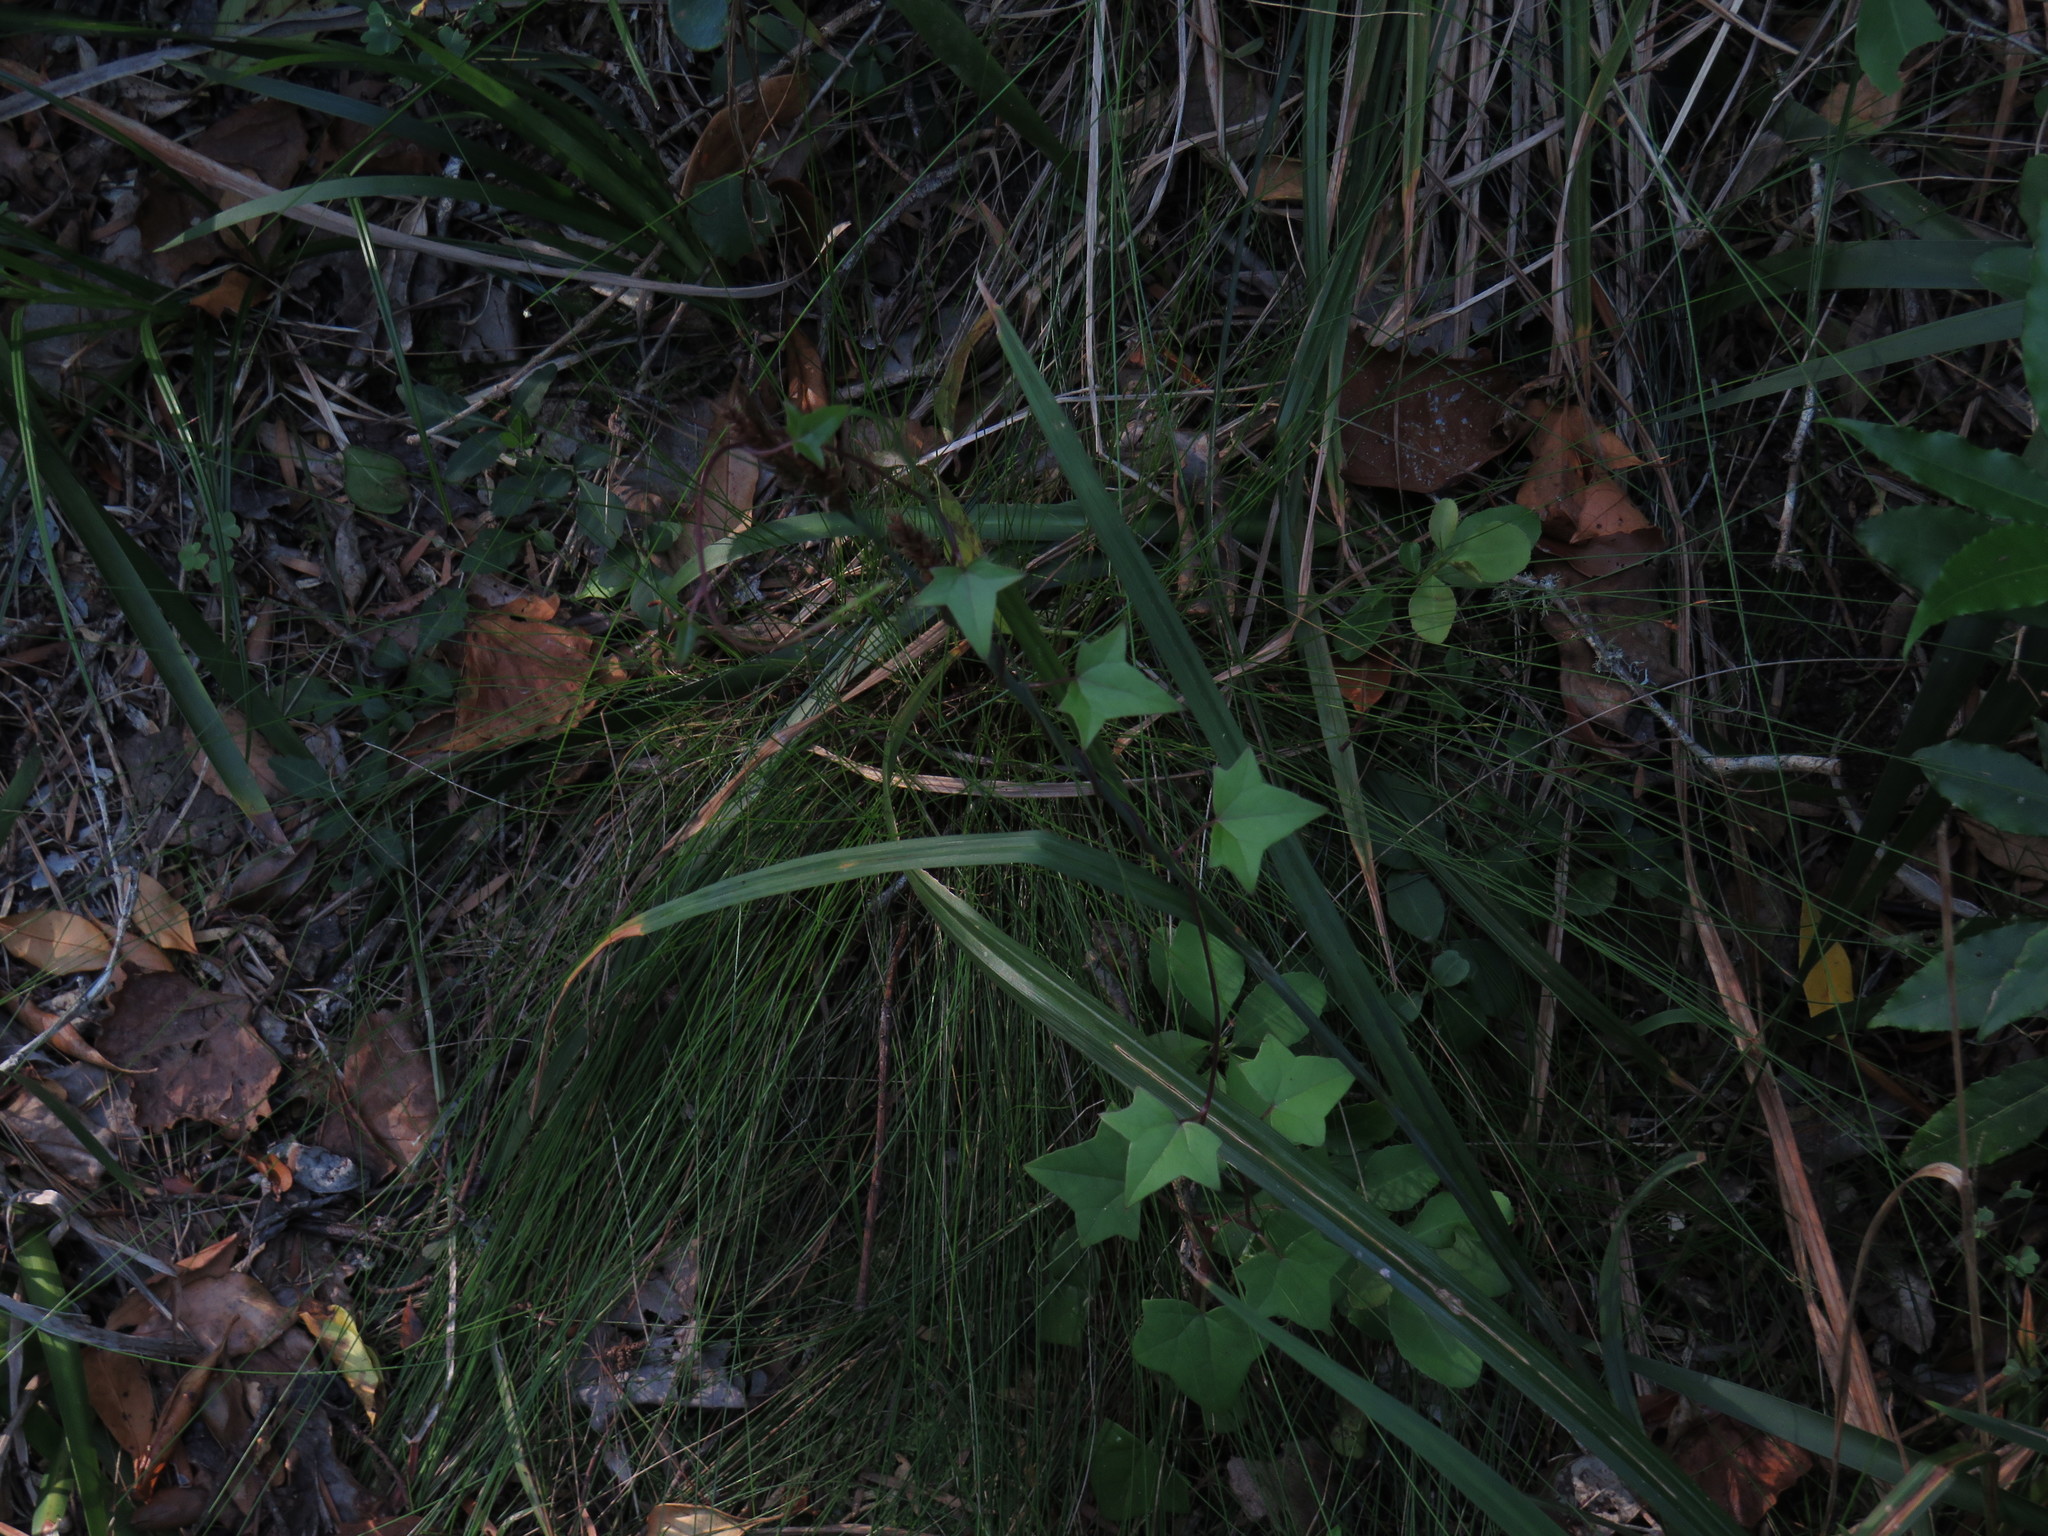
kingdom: Plantae
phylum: Tracheophyta
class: Magnoliopsida
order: Asterales
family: Asteraceae
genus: Senecio
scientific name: Senecio quinquelobus
